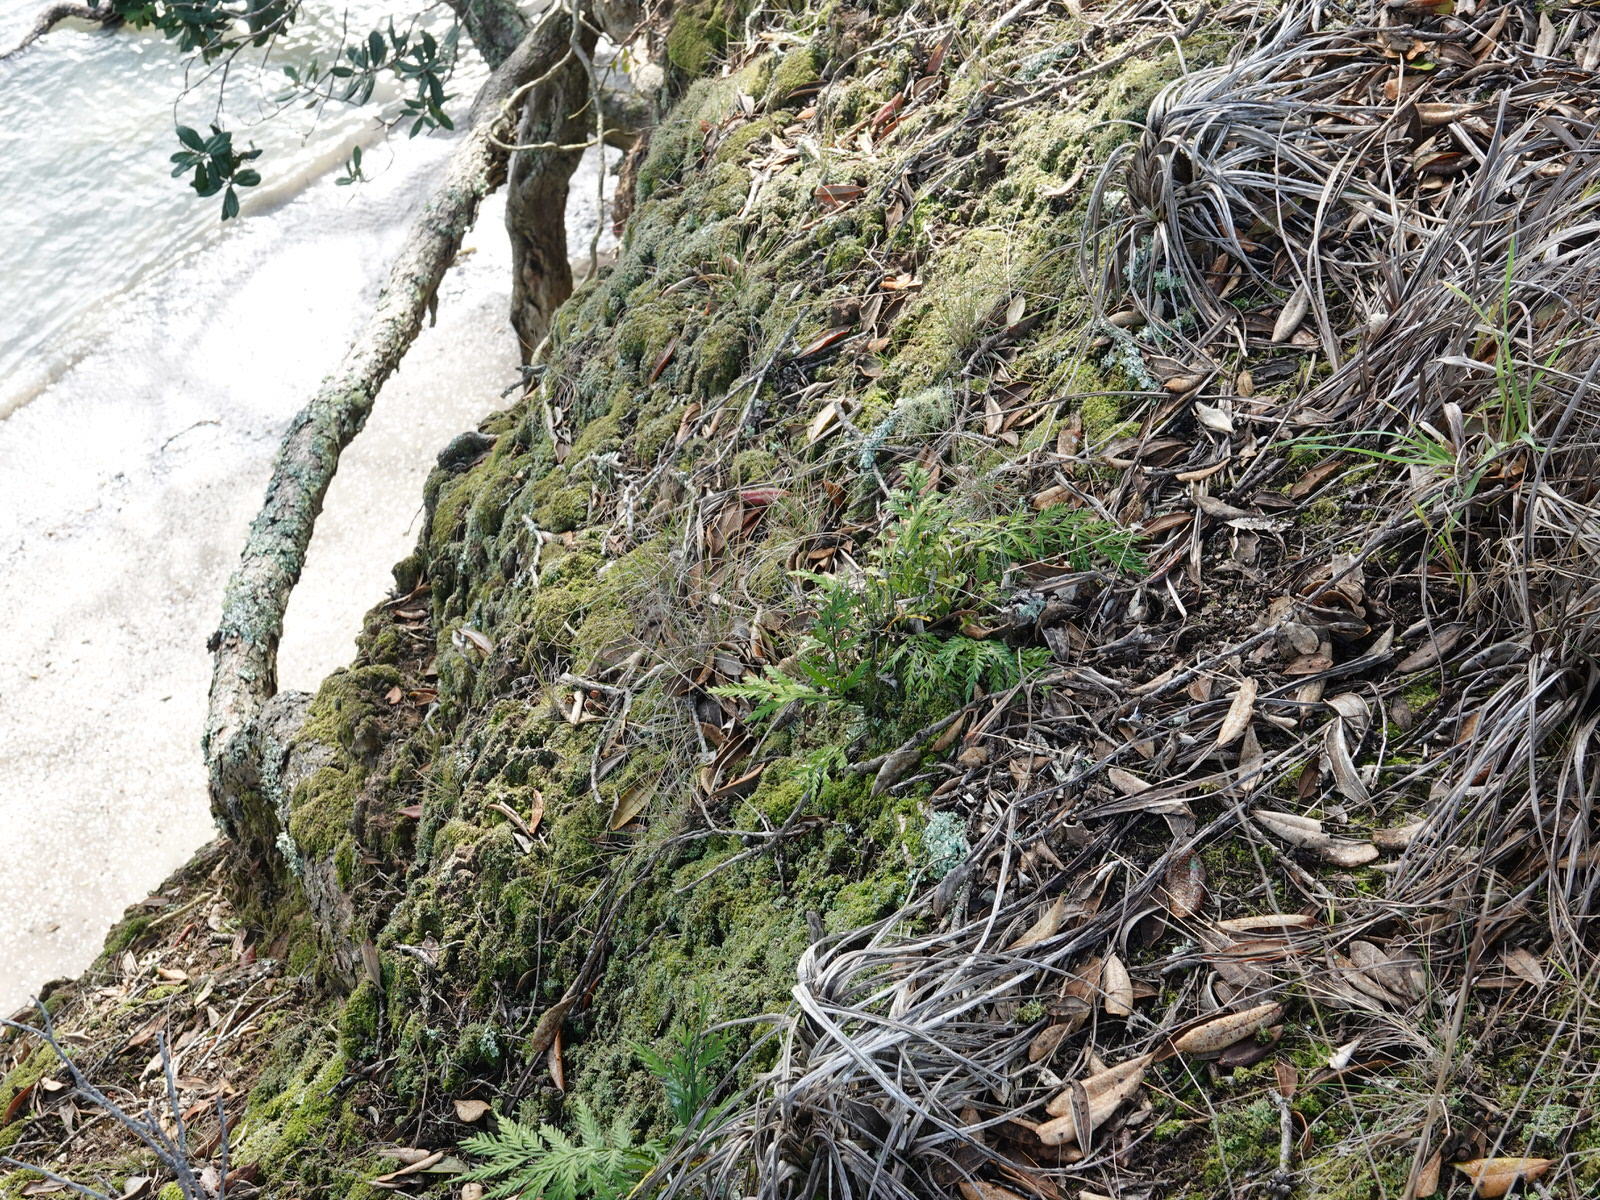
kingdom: Plantae
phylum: Tracheophyta
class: Polypodiopsida
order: Polypodiales
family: Aspleniaceae
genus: Asplenium
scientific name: Asplenium haurakiense
